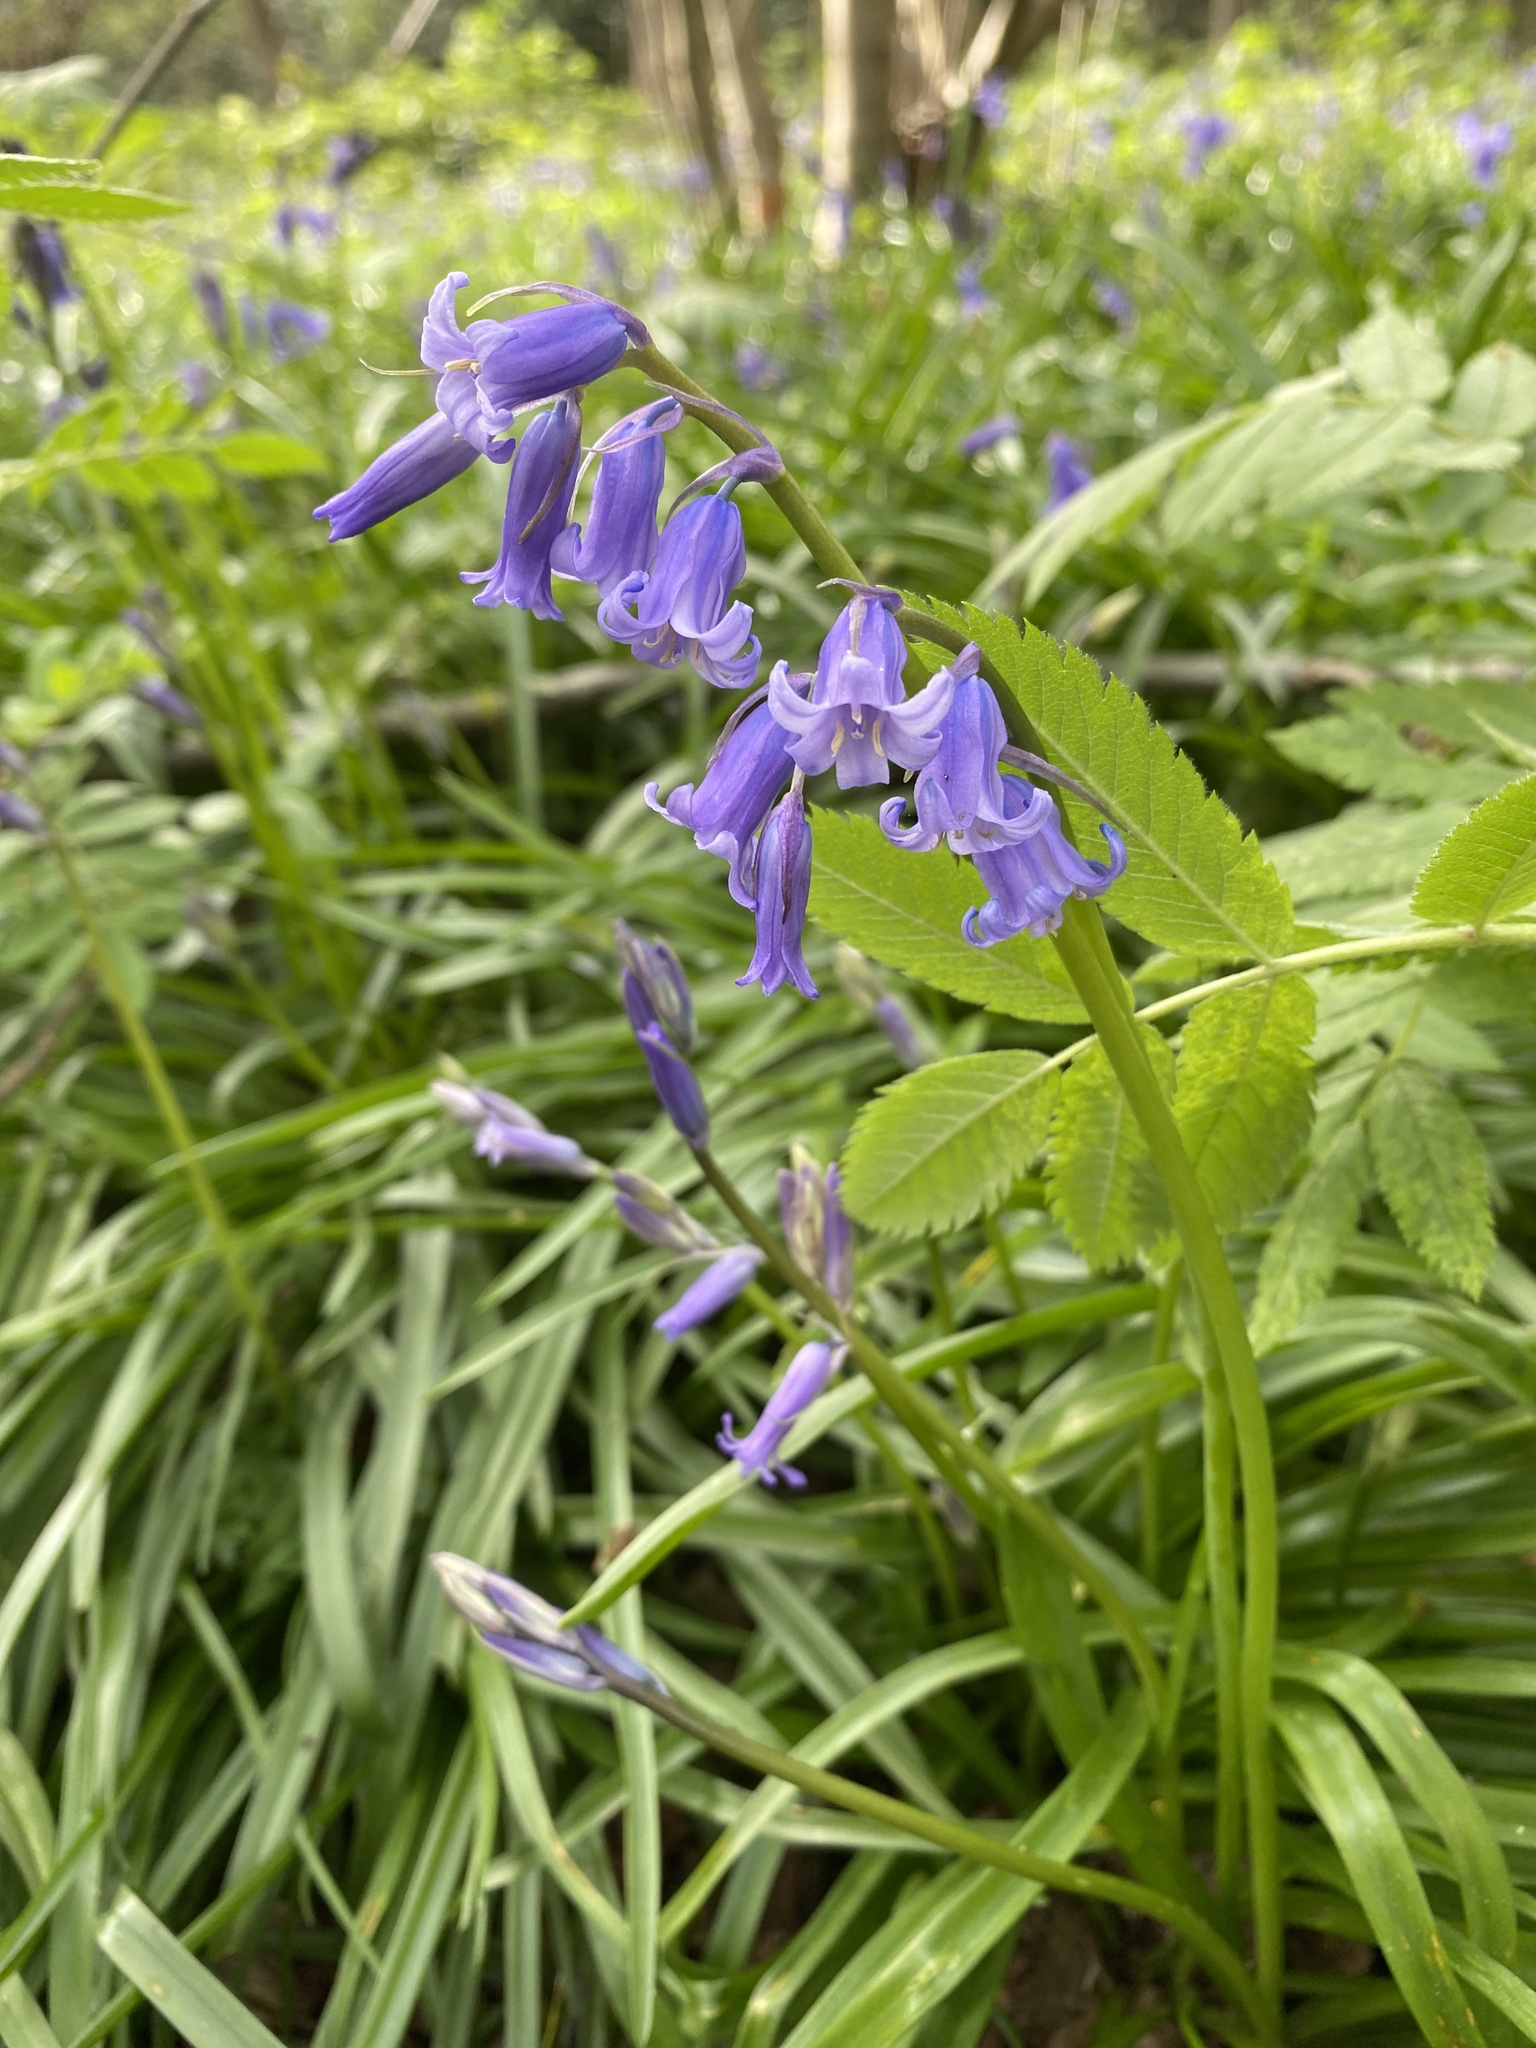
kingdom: Plantae
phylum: Tracheophyta
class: Liliopsida
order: Asparagales
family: Asparagaceae
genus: Hyacinthoides
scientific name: Hyacinthoides non-scripta
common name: Bluebell
